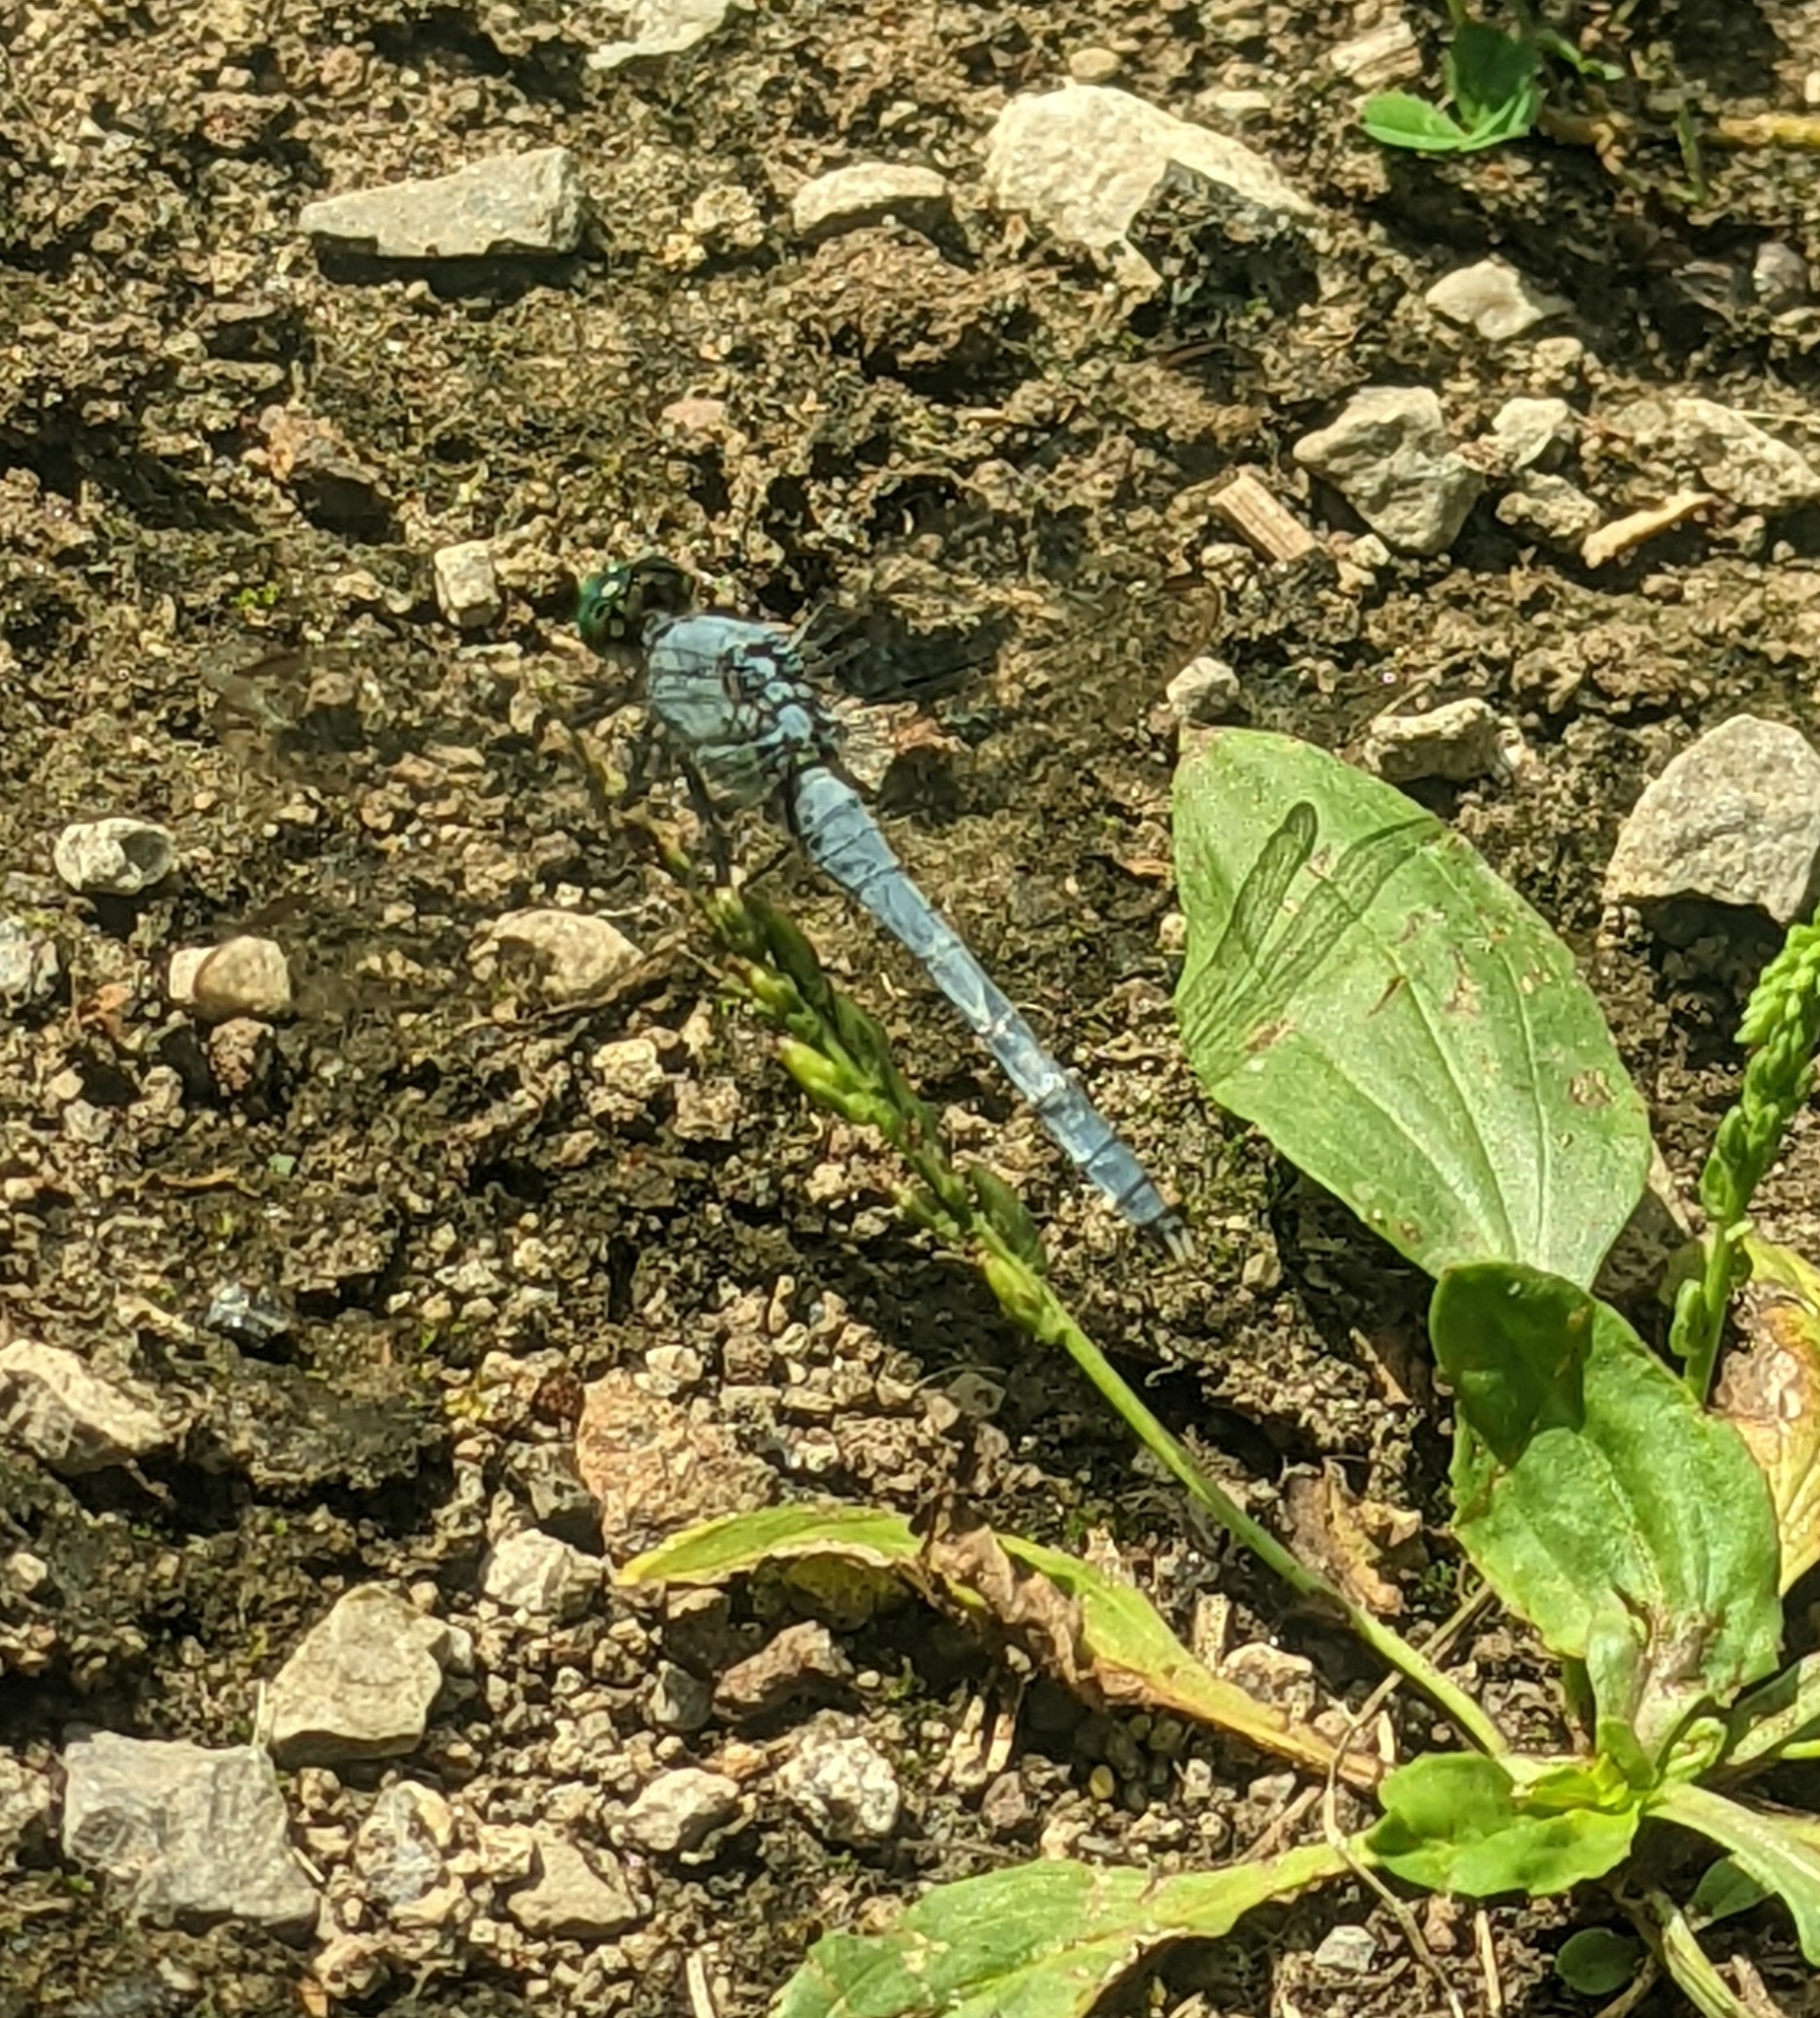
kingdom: Animalia
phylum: Arthropoda
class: Insecta
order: Odonata
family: Libellulidae
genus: Erythemis
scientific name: Erythemis simplicicollis
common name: Eastern pondhawk
